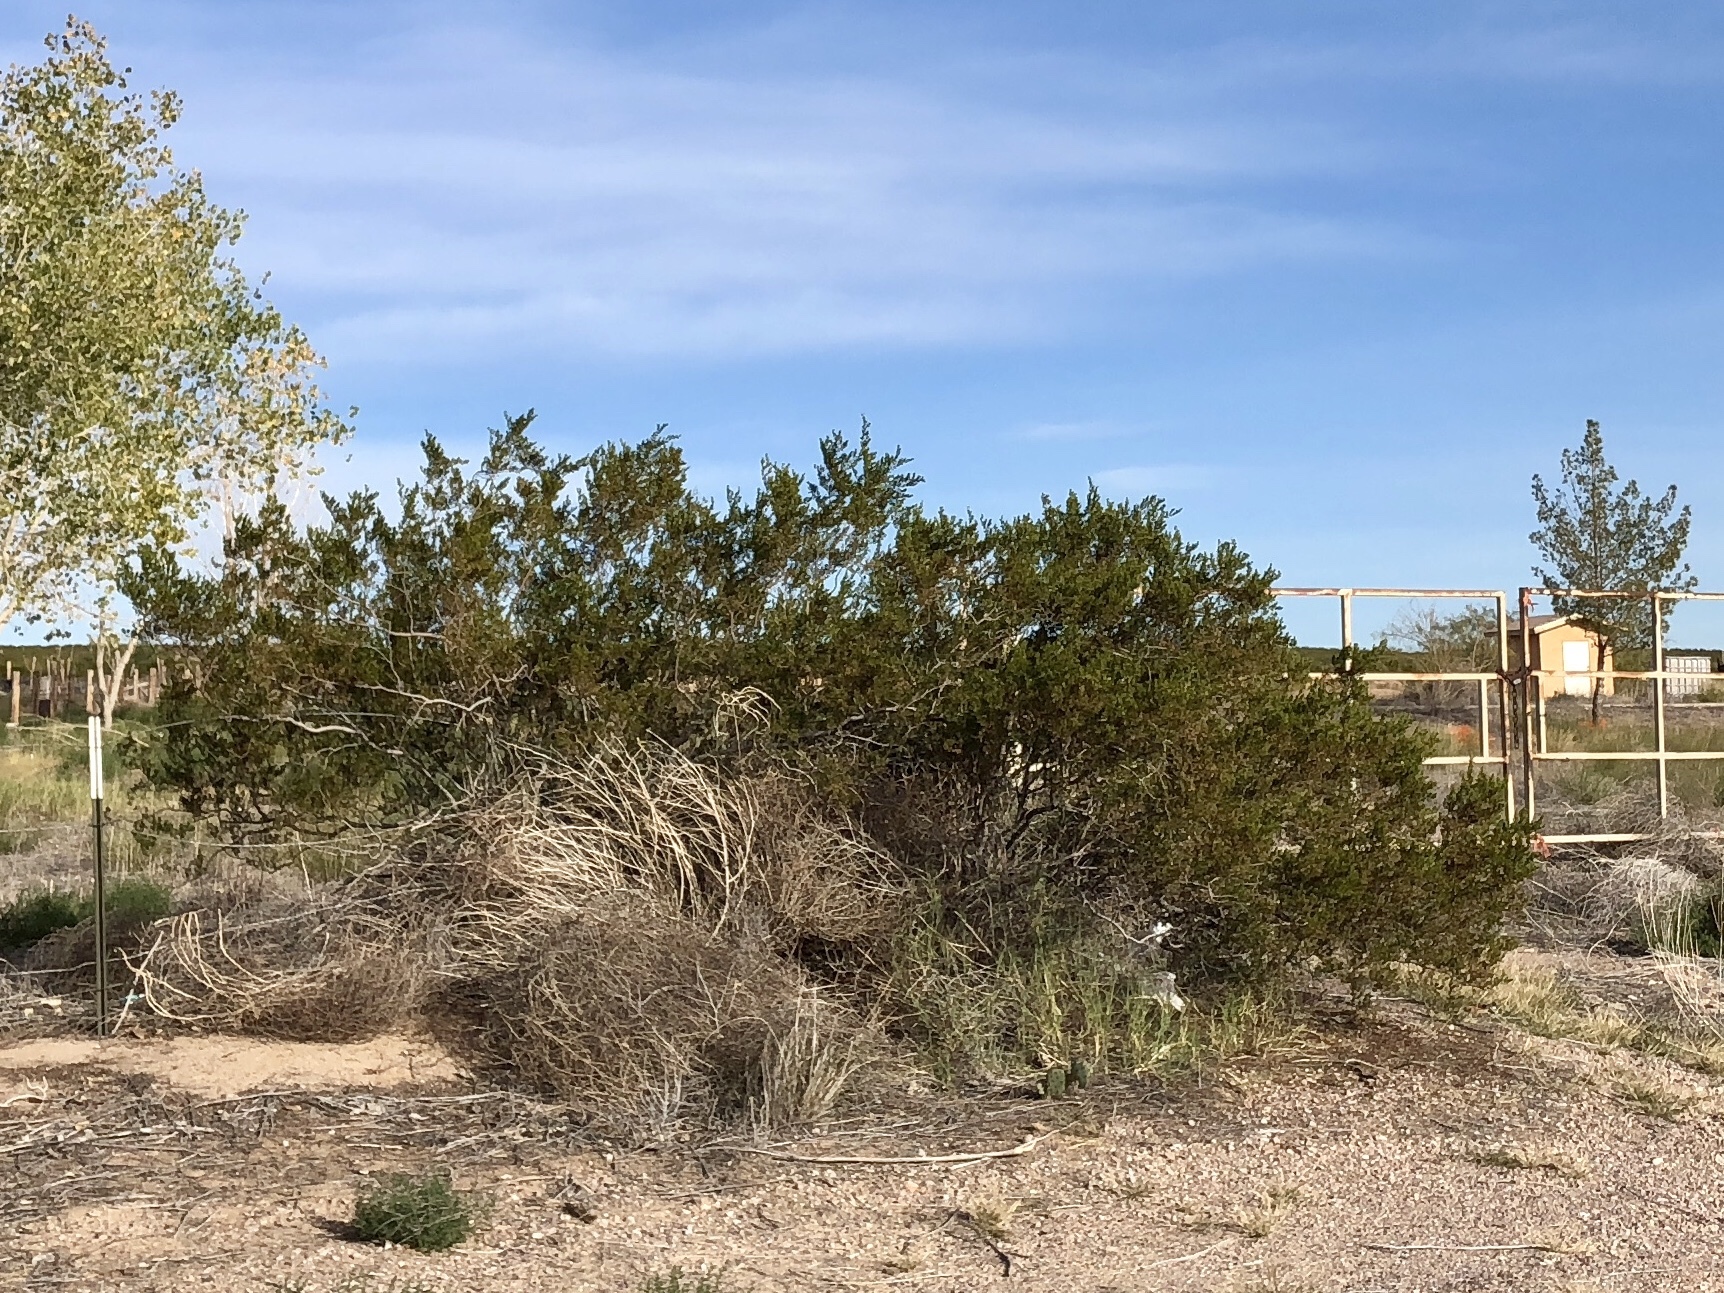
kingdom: Plantae
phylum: Tracheophyta
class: Magnoliopsida
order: Zygophyllales
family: Zygophyllaceae
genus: Larrea
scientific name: Larrea tridentata
